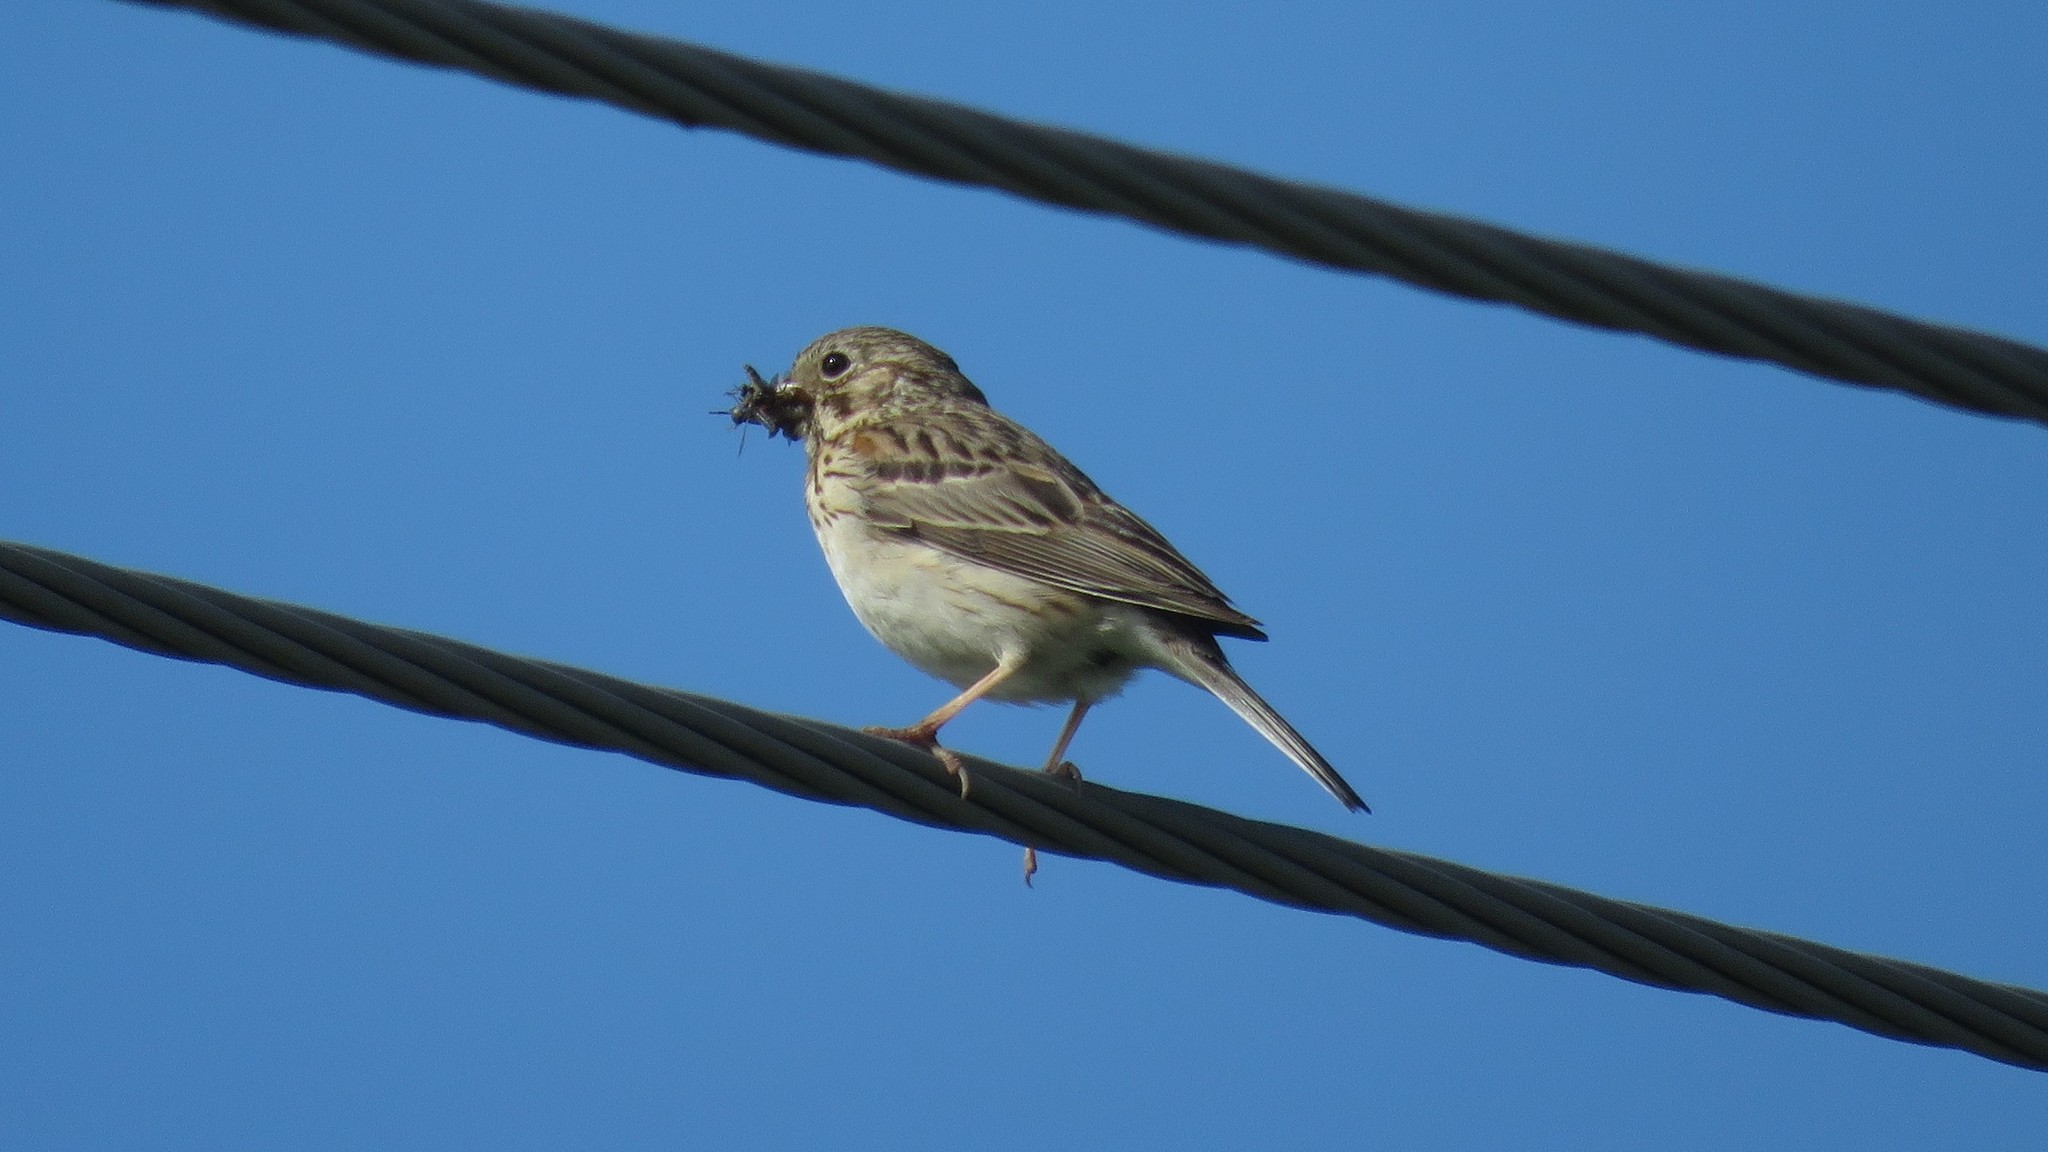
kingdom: Animalia
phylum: Chordata
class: Aves
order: Passeriformes
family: Passerellidae
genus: Pooecetes
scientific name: Pooecetes gramineus
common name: Vesper sparrow
